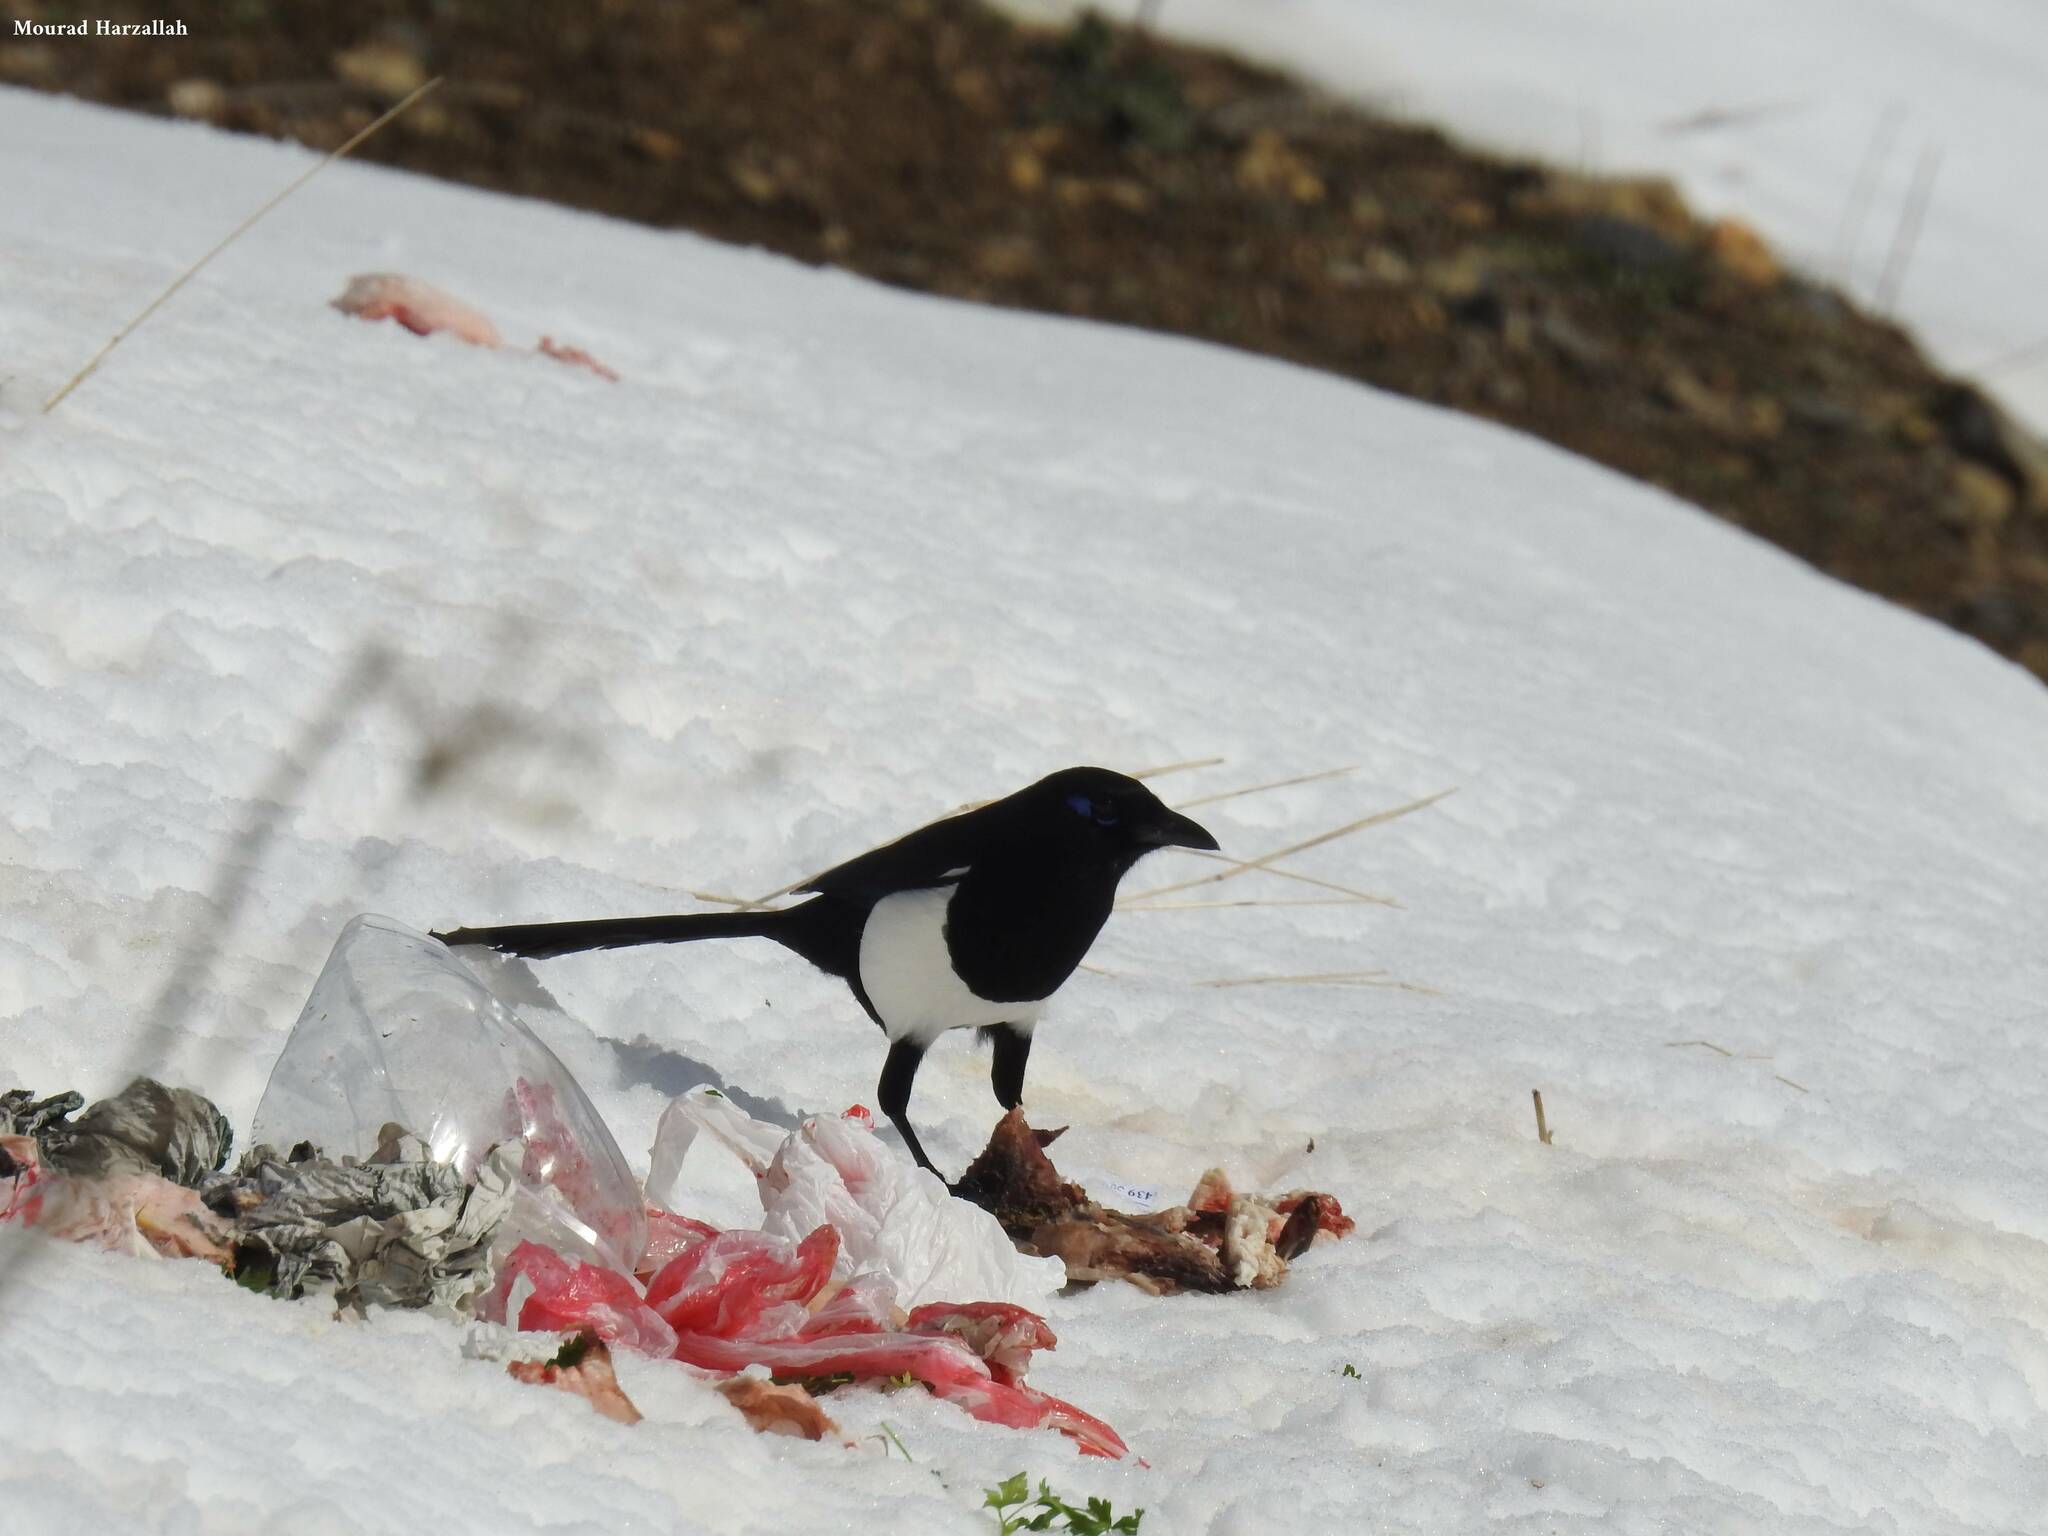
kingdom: Animalia
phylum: Chordata
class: Aves
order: Passeriformes
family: Corvidae
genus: Pica
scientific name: Pica mauritanica
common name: Maghreb magpie
